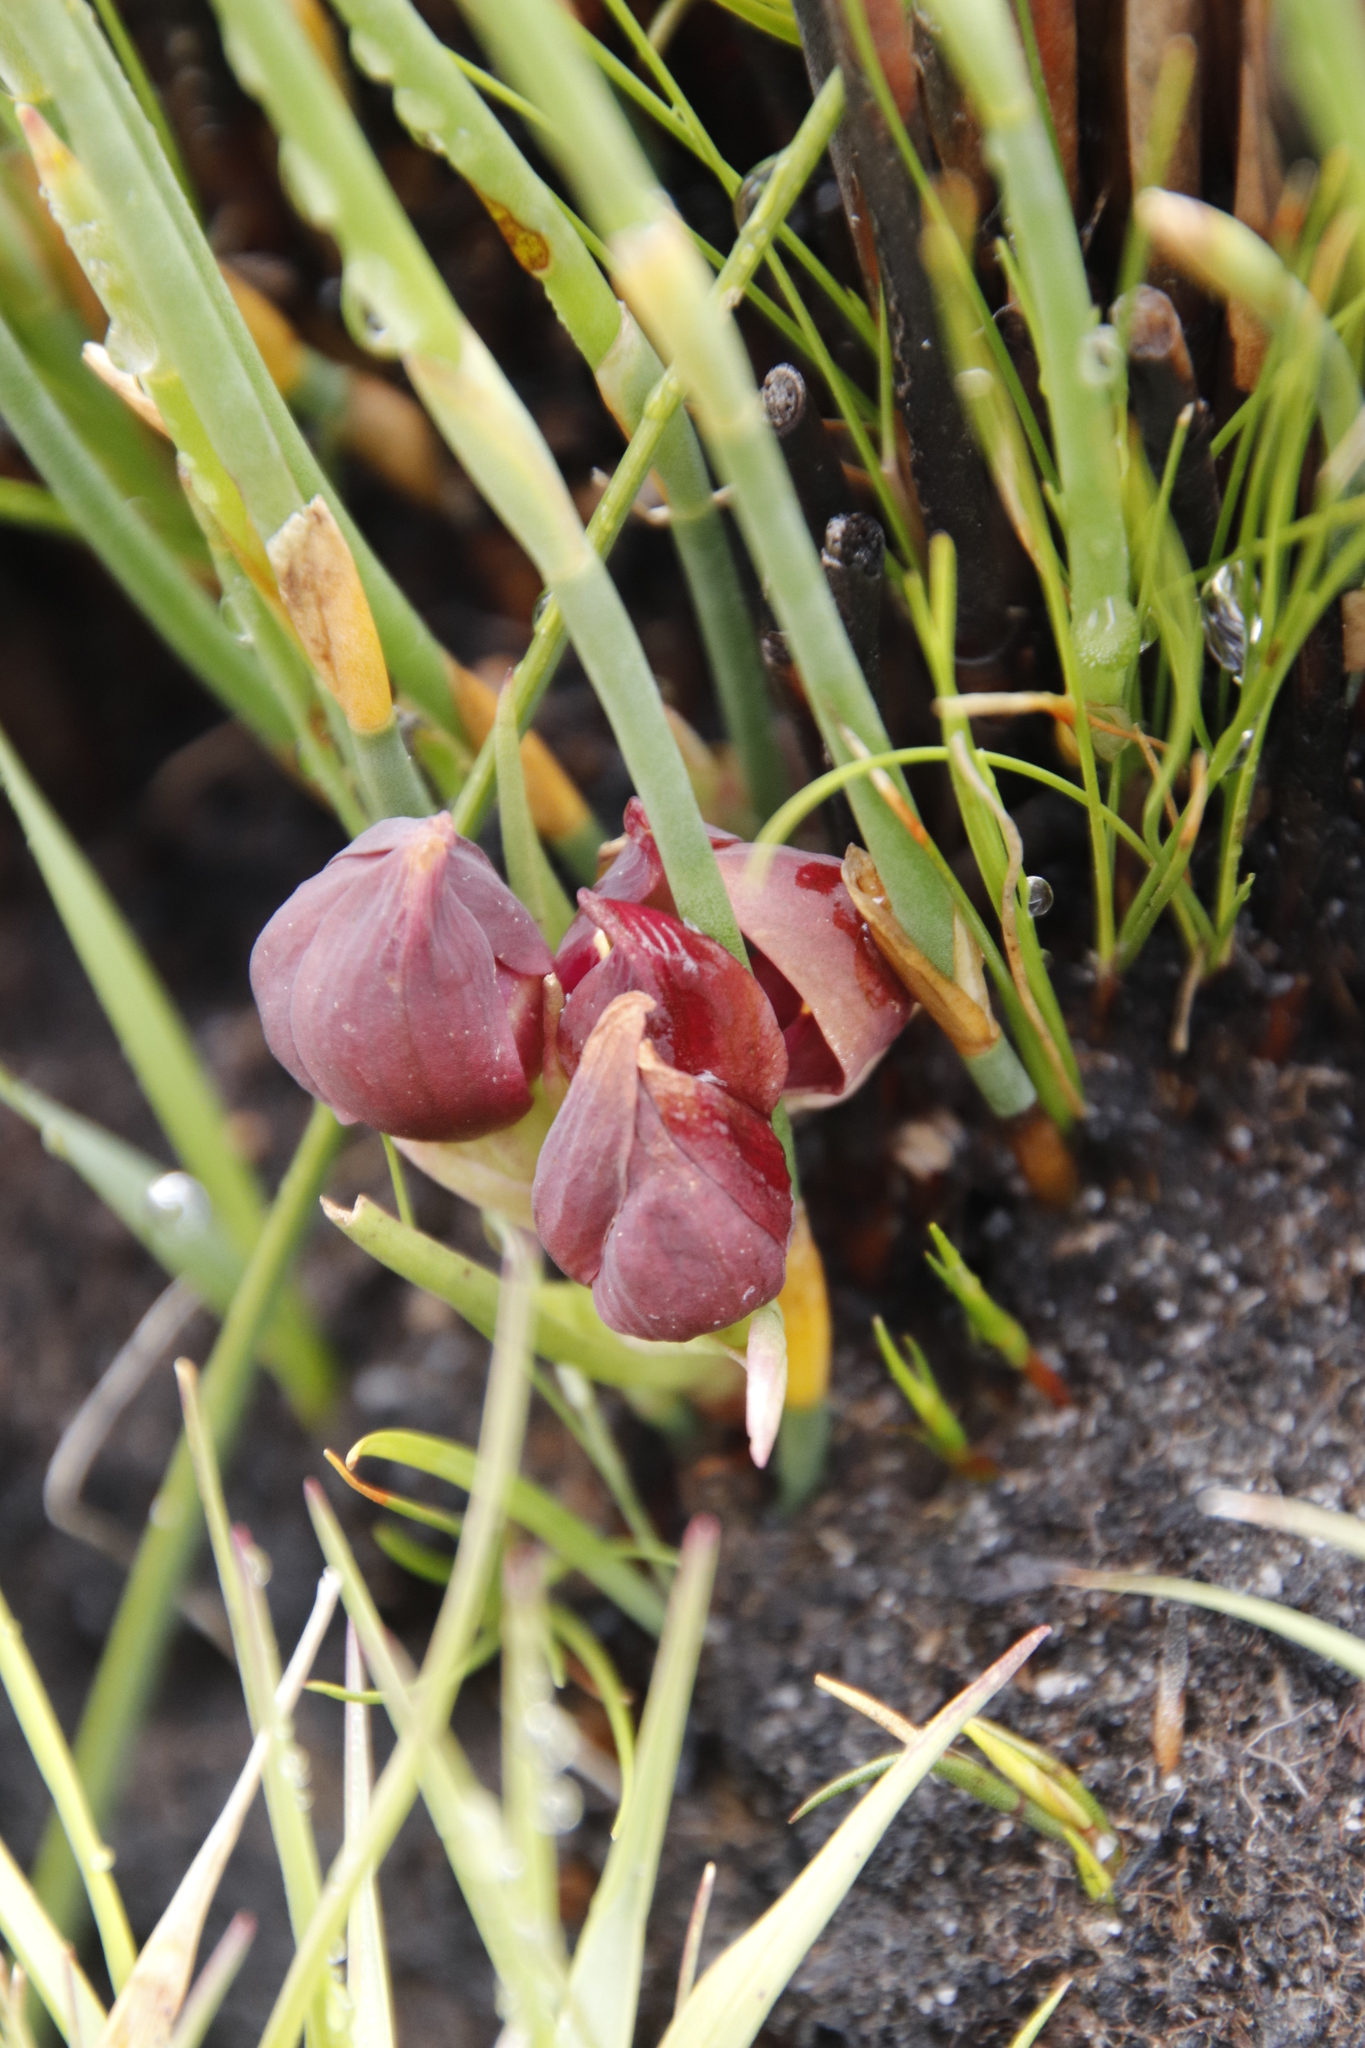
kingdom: Plantae
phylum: Tracheophyta
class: Liliopsida
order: Asparagales
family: Orchidaceae
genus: Disa
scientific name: Disa bodkinii
